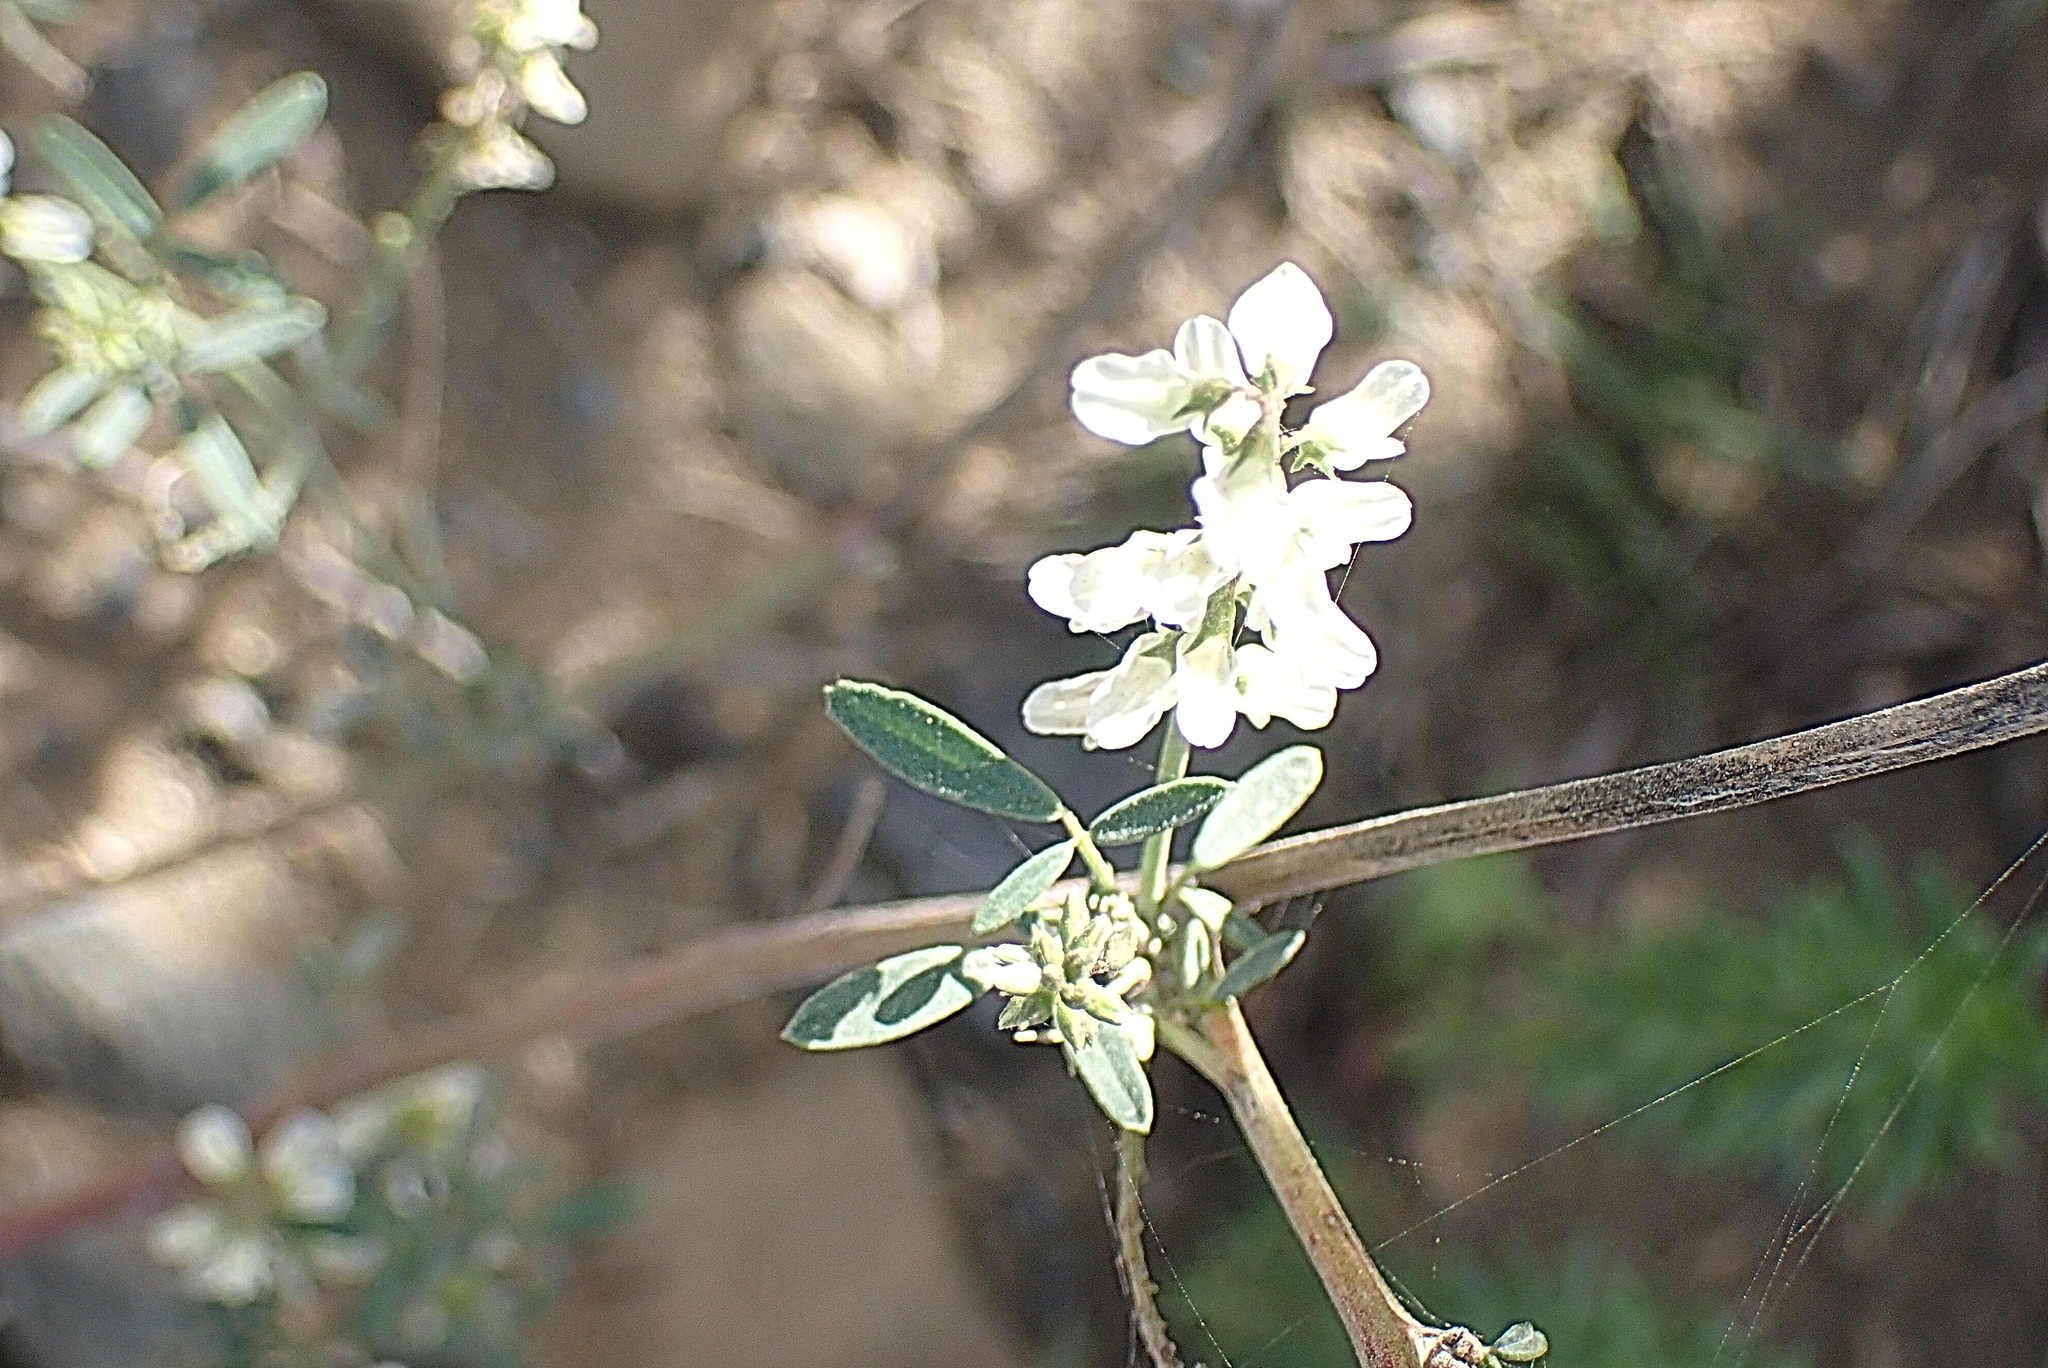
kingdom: Plantae
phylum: Tracheophyta
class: Magnoliopsida
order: Fabales
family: Fabaceae
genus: Melilotus
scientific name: Melilotus albus
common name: White melilot
